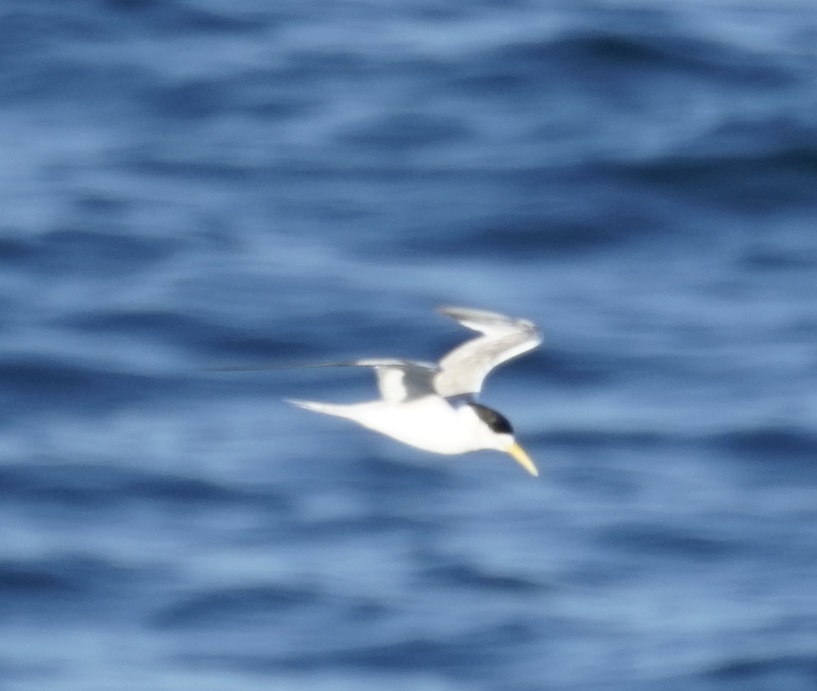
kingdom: Animalia
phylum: Chordata
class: Aves
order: Charadriiformes
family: Laridae
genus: Thalasseus
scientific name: Thalasseus bergii
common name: Greater crested tern
